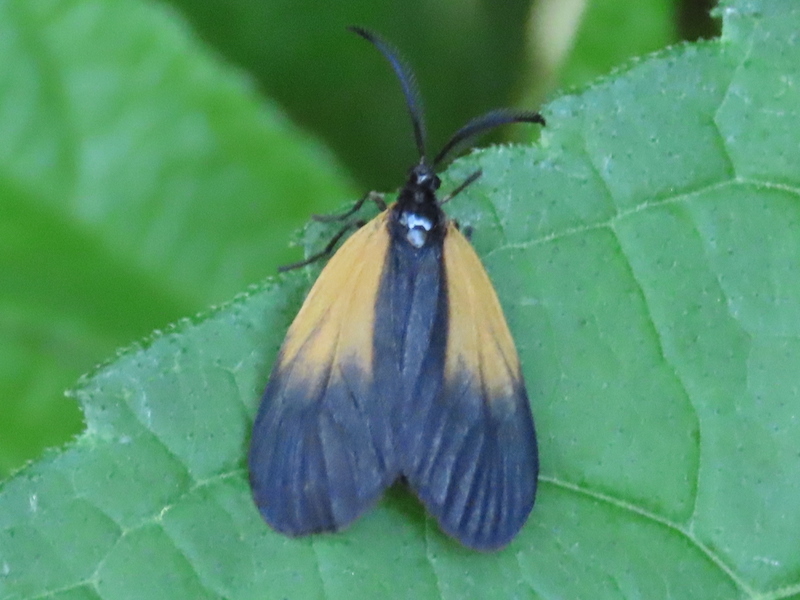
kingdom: Animalia
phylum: Arthropoda
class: Insecta
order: Lepidoptera
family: Zygaenidae
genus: Malthaca
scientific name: Malthaca dimidiata
